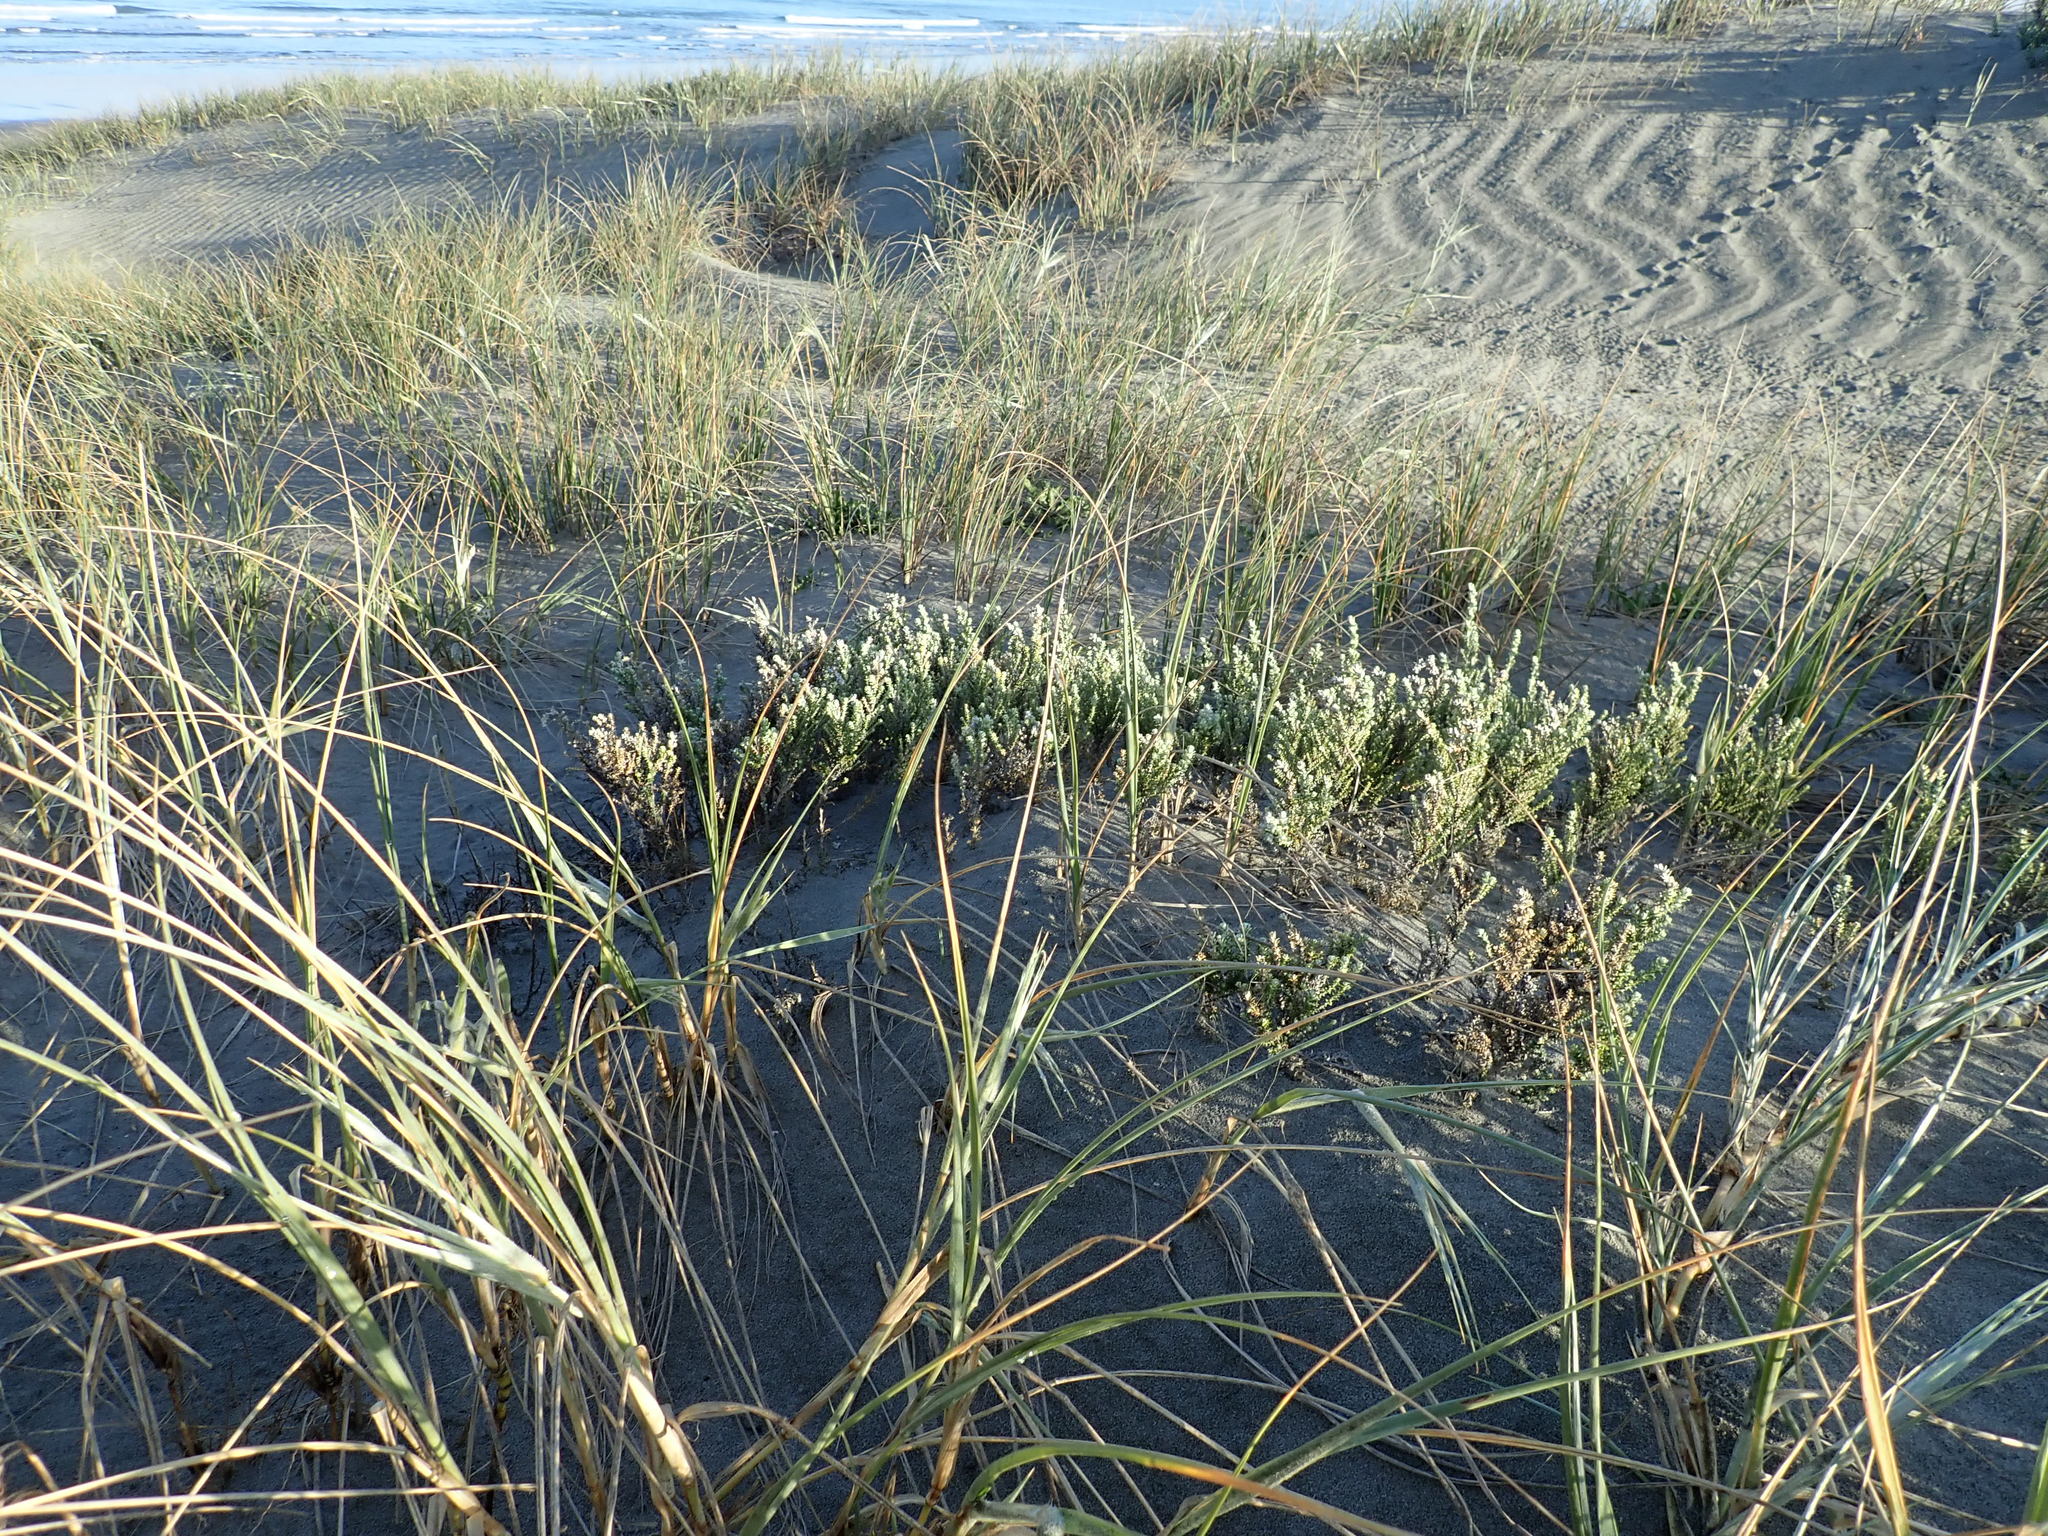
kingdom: Plantae
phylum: Tracheophyta
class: Magnoliopsida
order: Asterales
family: Asteraceae
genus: Ozothamnus
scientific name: Ozothamnus leptophyllus
